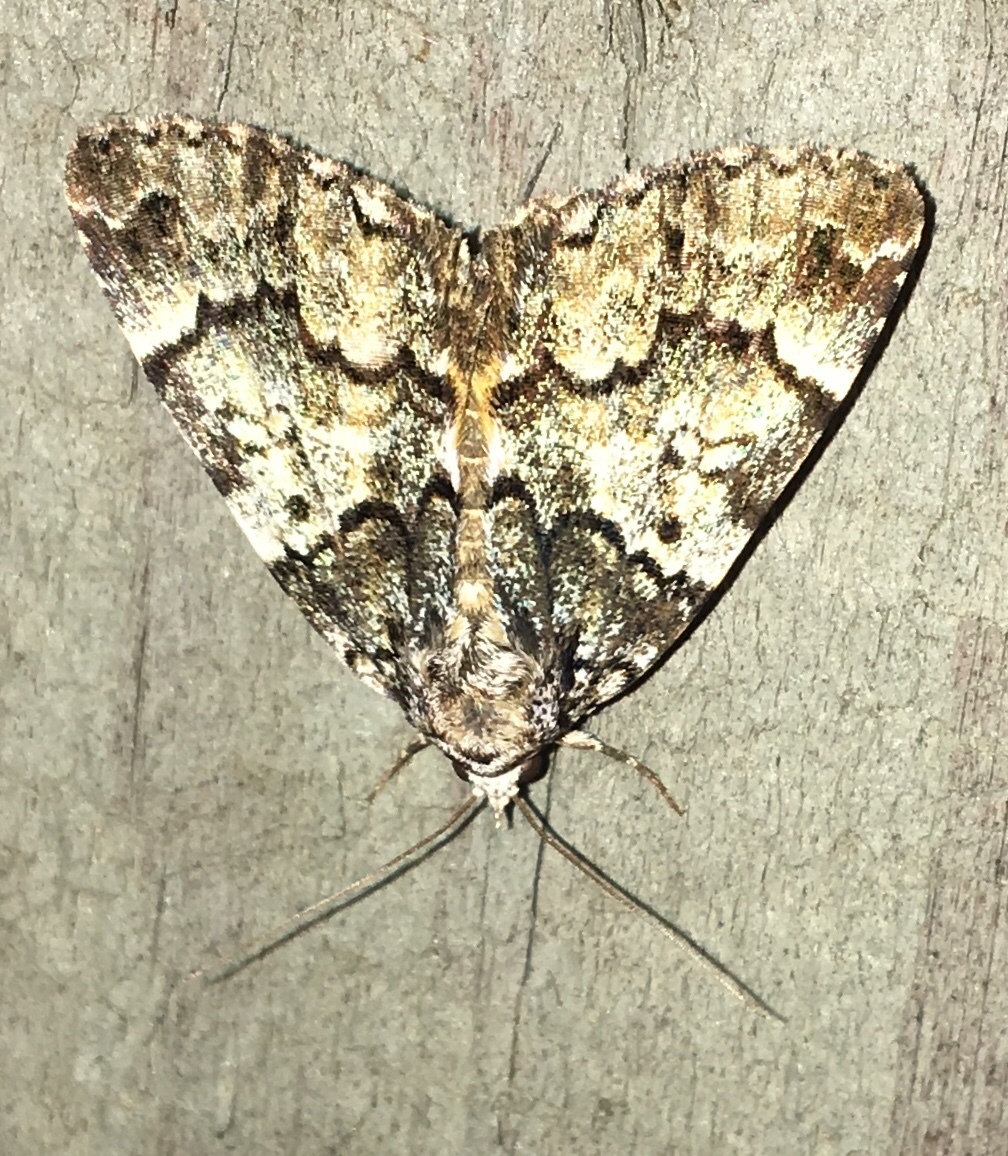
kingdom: Animalia
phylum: Arthropoda
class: Insecta
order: Lepidoptera
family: Erebidae
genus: Allotria
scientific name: Allotria elonympha
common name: False underwing
